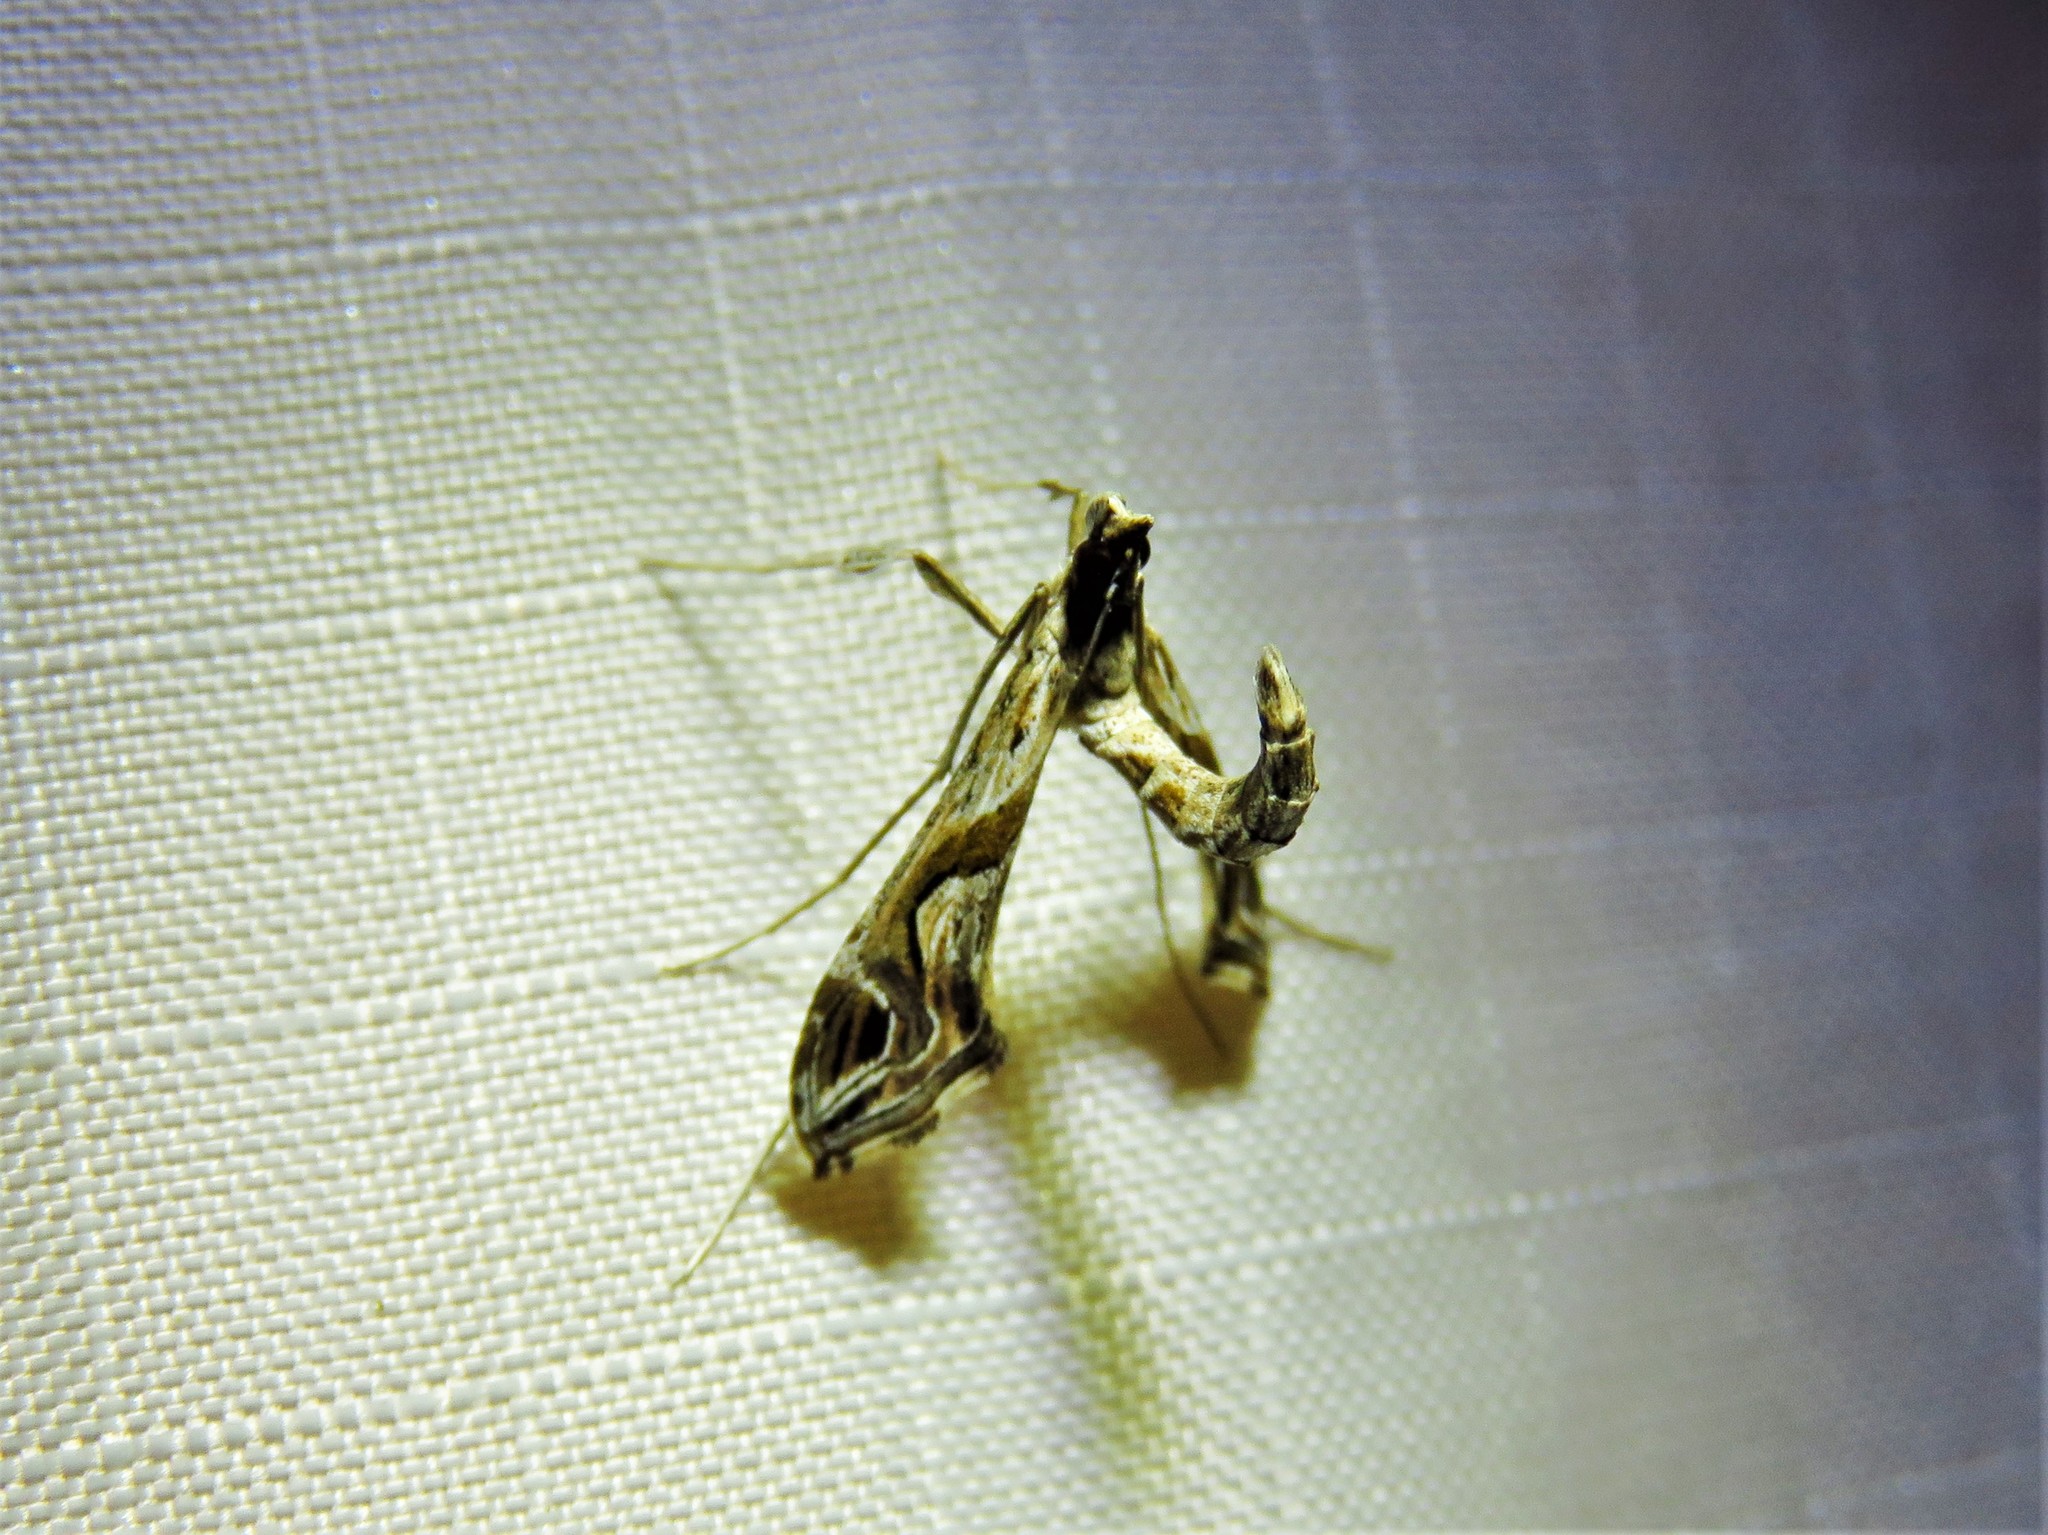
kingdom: Animalia
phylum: Arthropoda
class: Insecta
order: Lepidoptera
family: Crambidae
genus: Lineodes
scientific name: Lineodes integra
